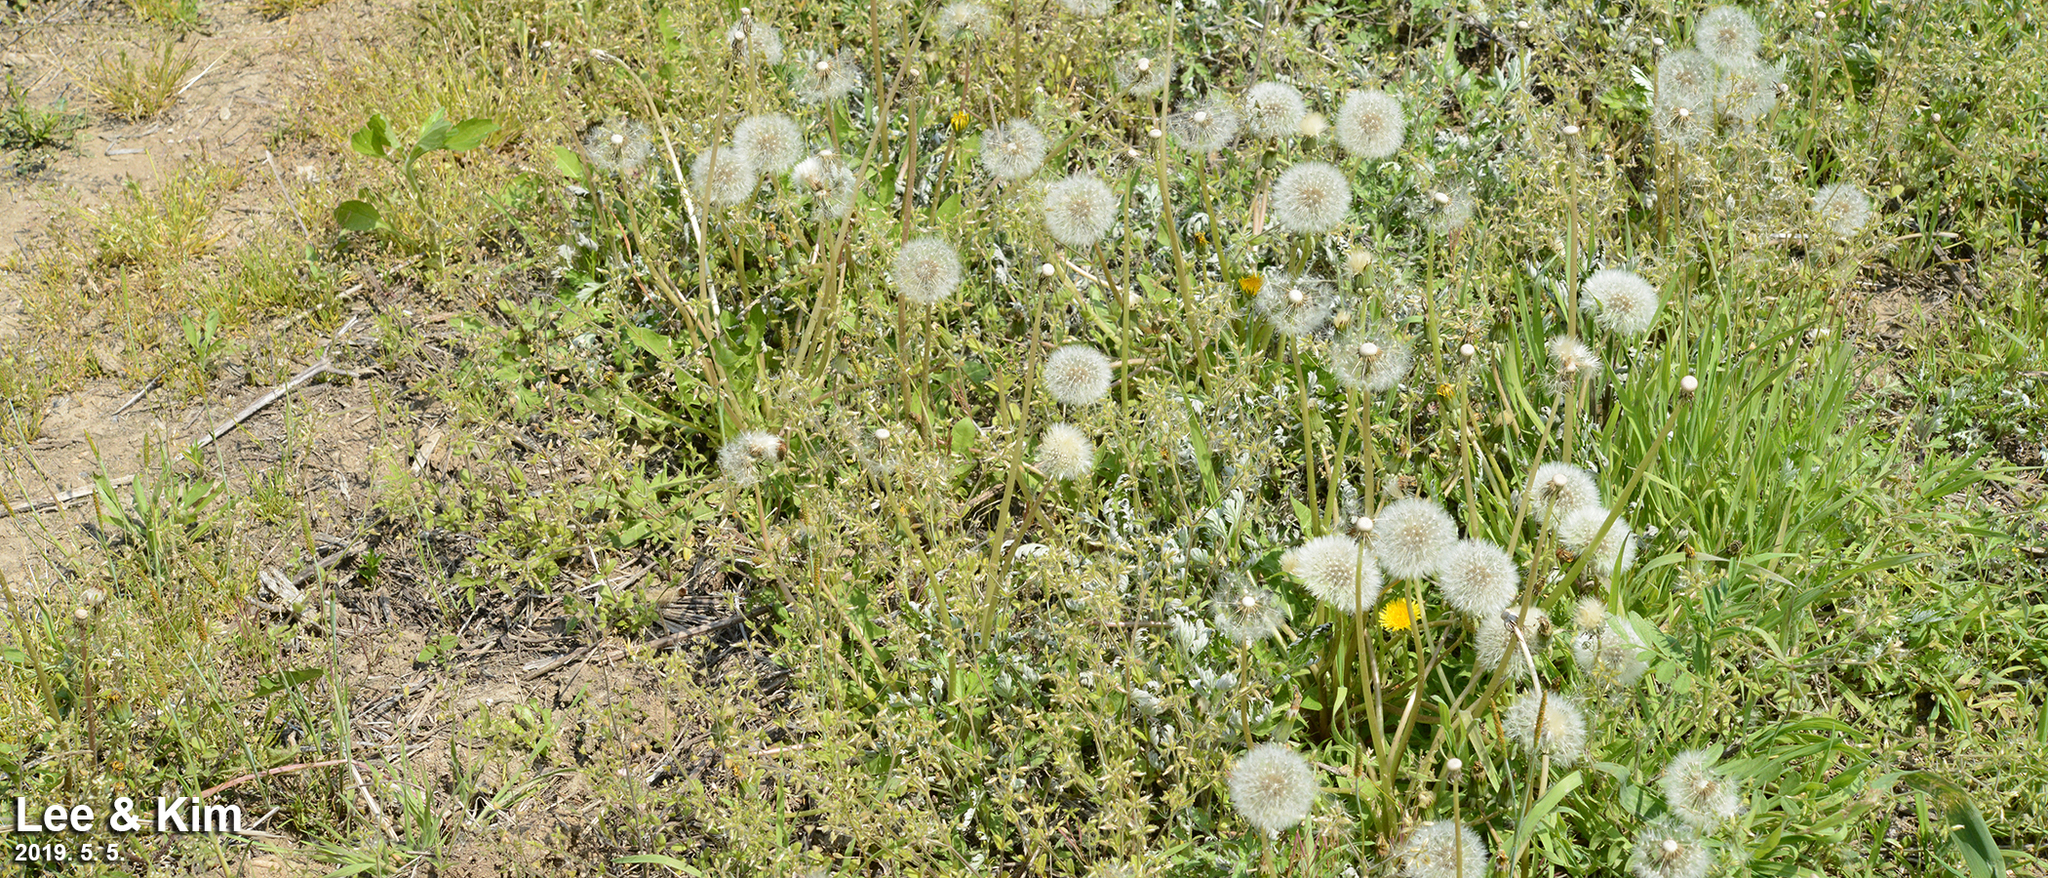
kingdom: Plantae
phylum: Tracheophyta
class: Magnoliopsida
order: Asterales
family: Asteraceae
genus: Taraxacum
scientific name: Taraxacum officinale
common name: Common dandelion
